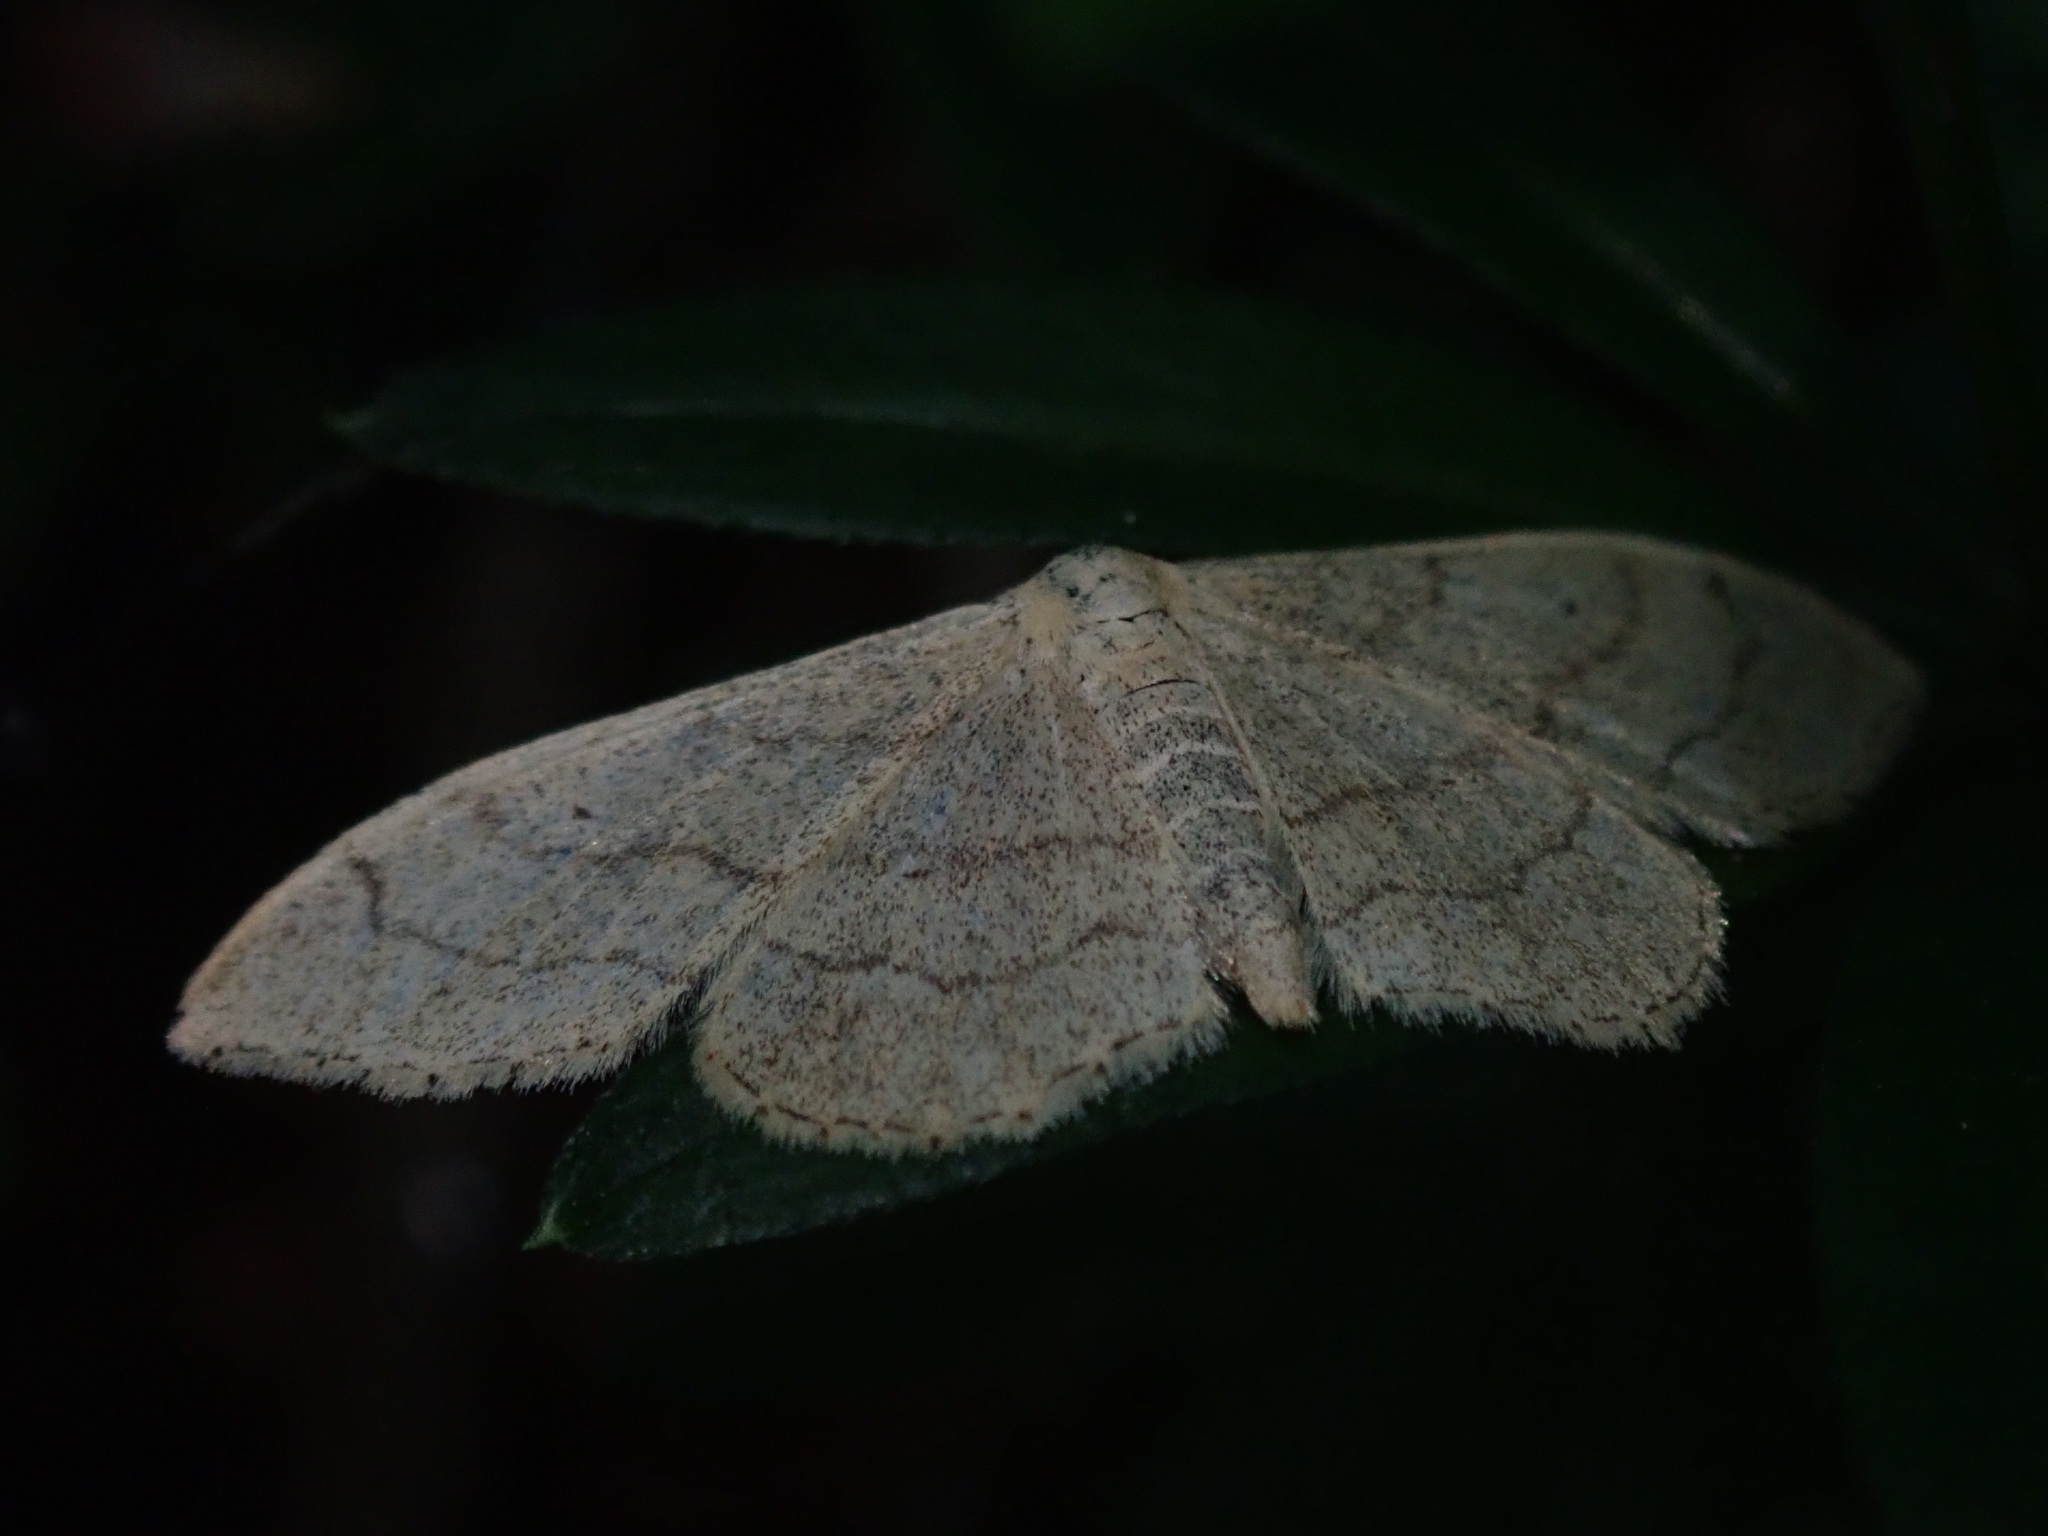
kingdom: Animalia
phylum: Arthropoda
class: Insecta
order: Lepidoptera
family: Geometridae
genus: Idaea
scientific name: Idaea aversata
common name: Riband wave
